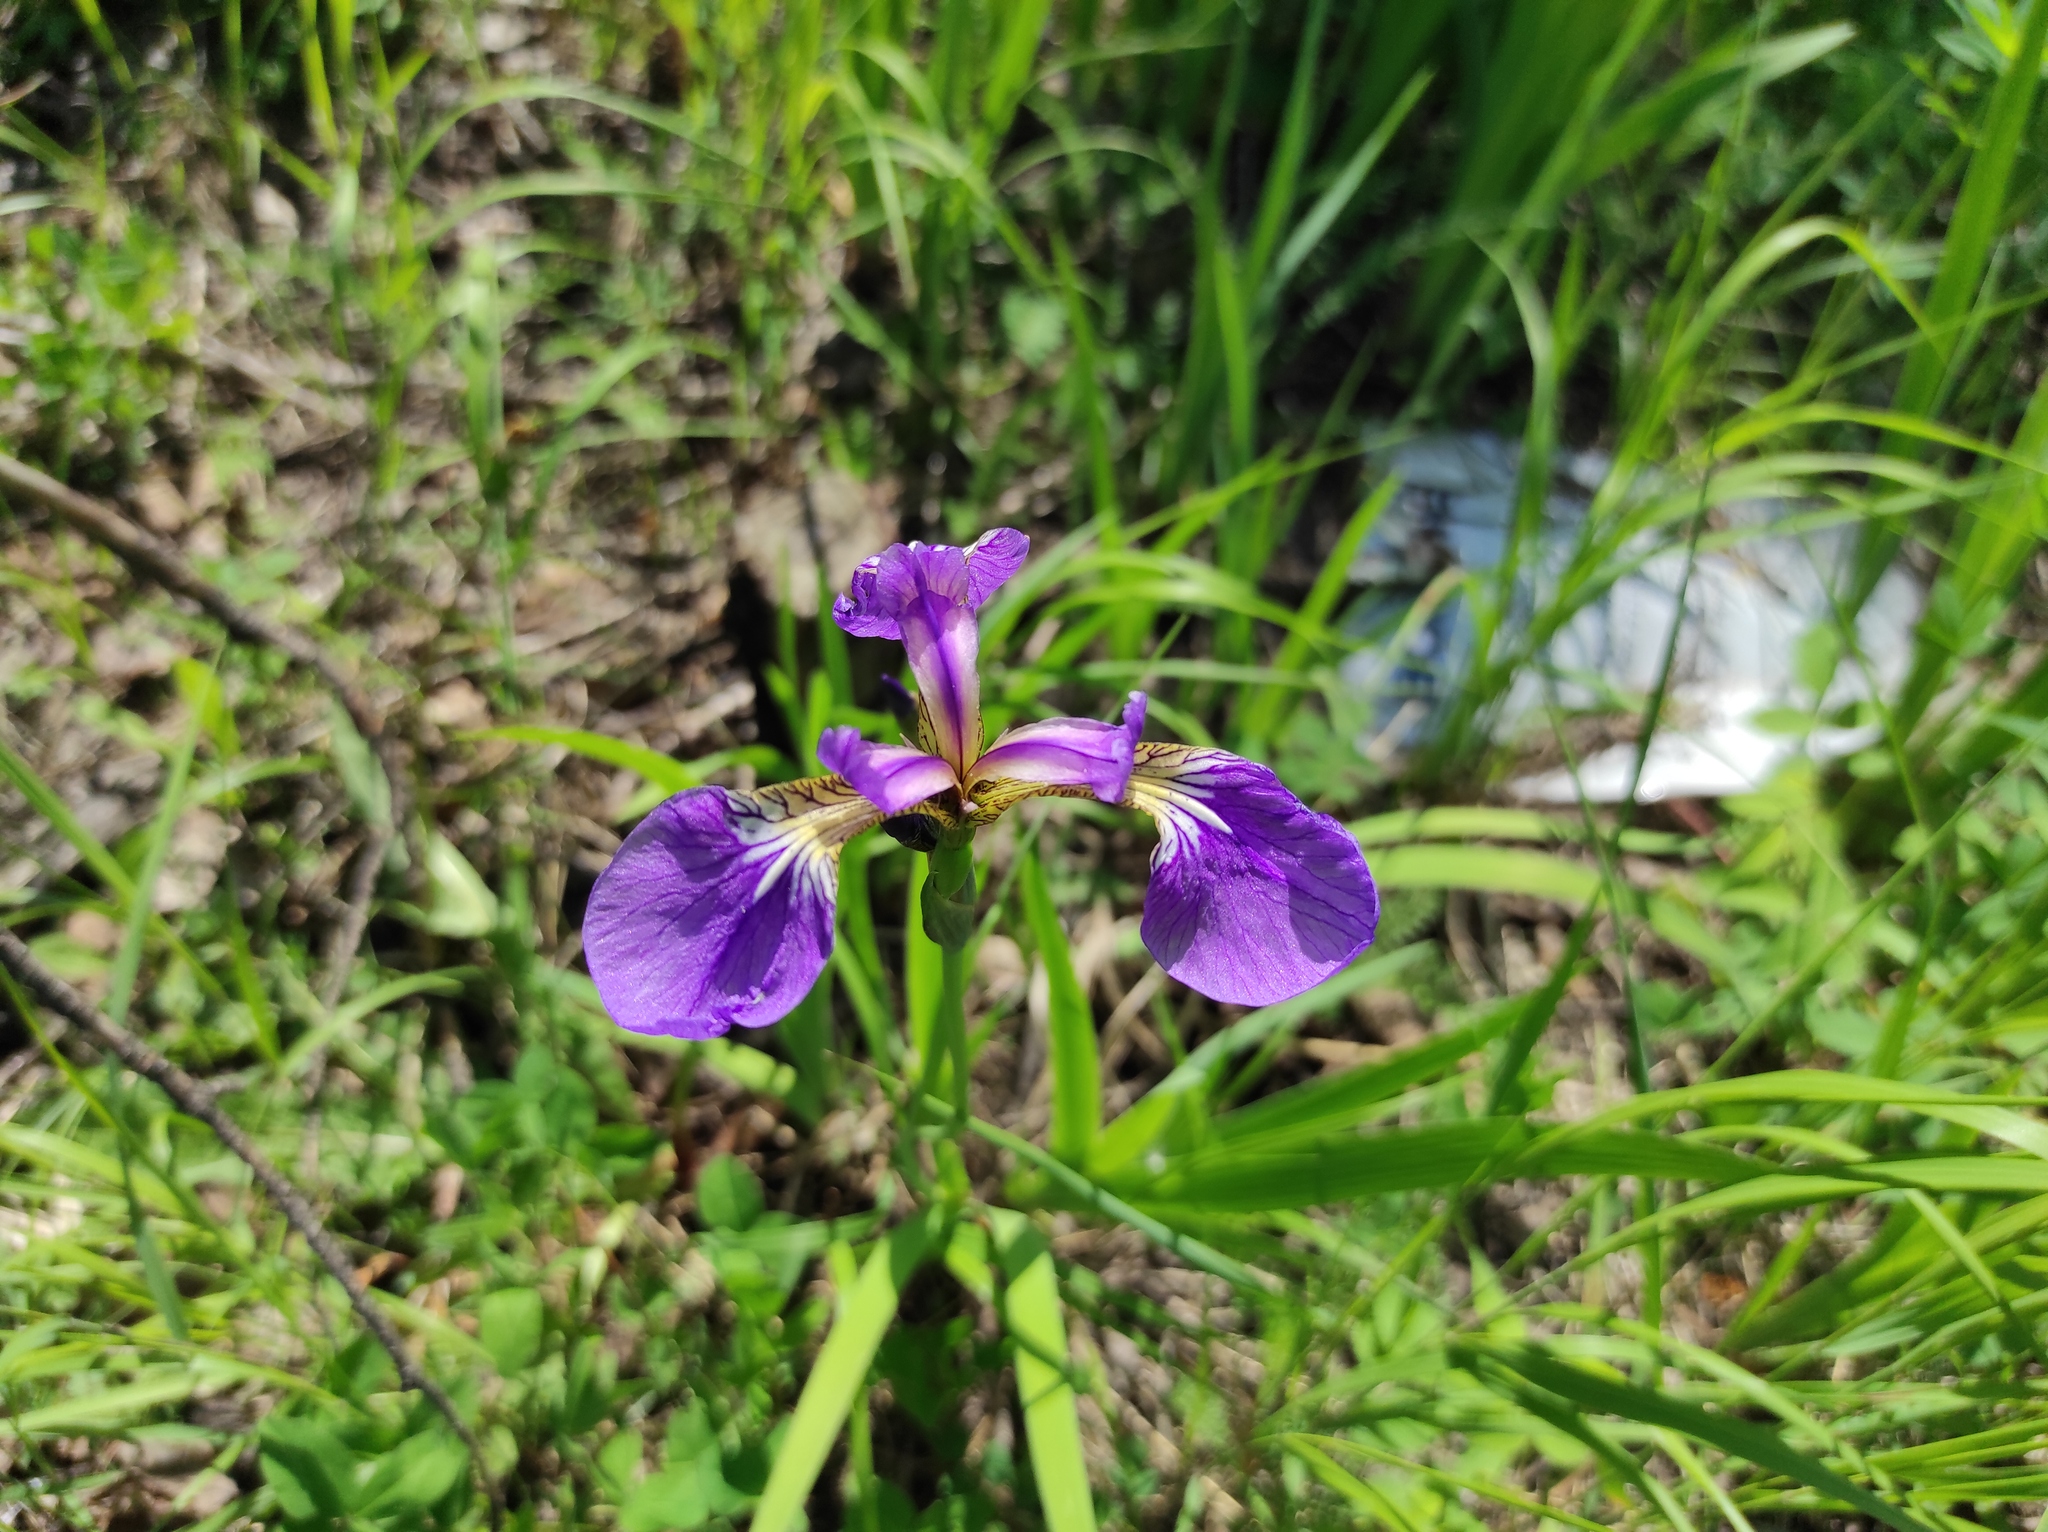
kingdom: Plantae
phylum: Tracheophyta
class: Liliopsida
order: Asparagales
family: Iridaceae
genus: Iris
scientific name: Iris setosa
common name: Arctic blue flag
